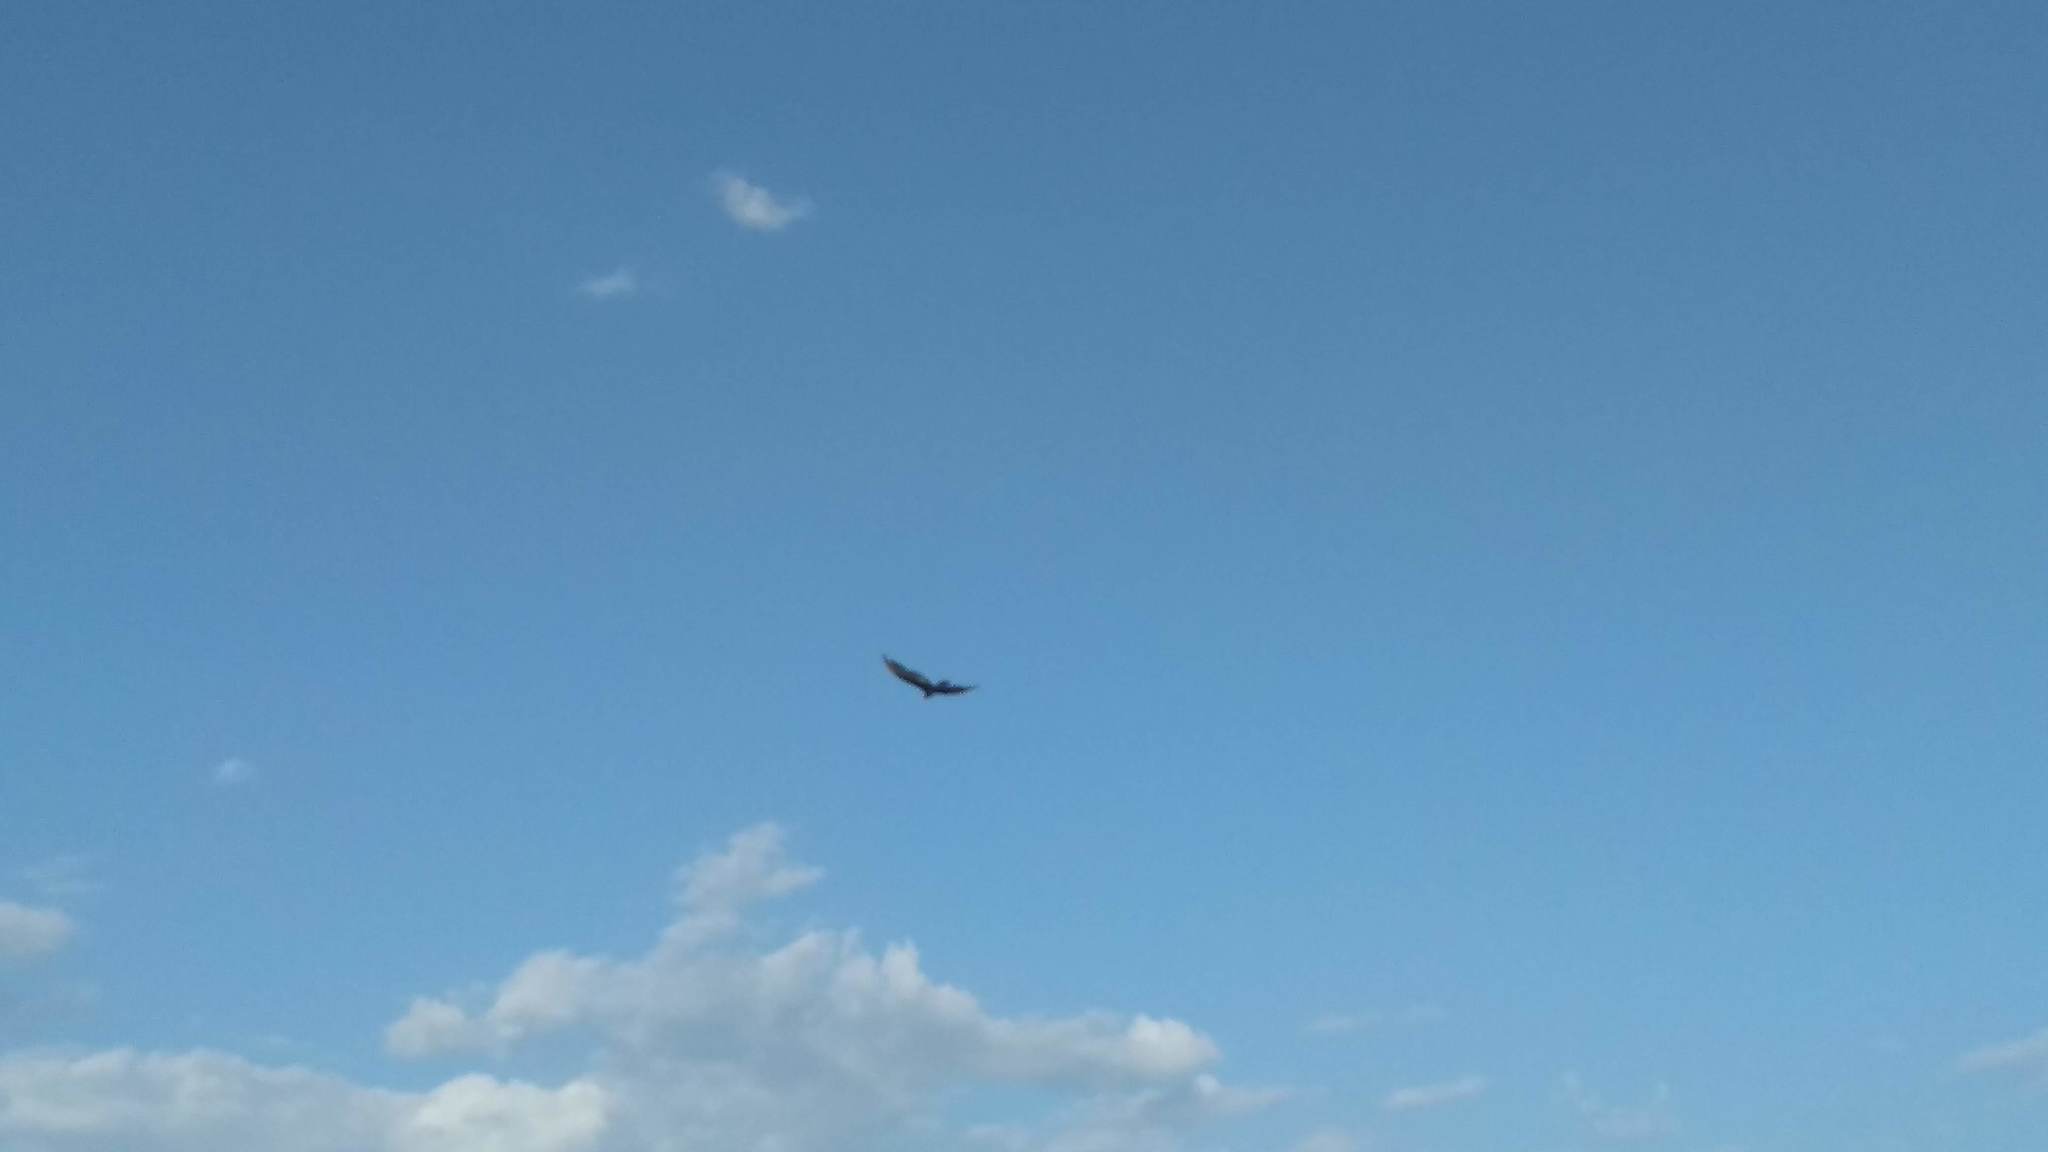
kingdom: Animalia
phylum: Chordata
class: Aves
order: Accipitriformes
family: Cathartidae
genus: Cathartes
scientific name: Cathartes aura
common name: Turkey vulture
